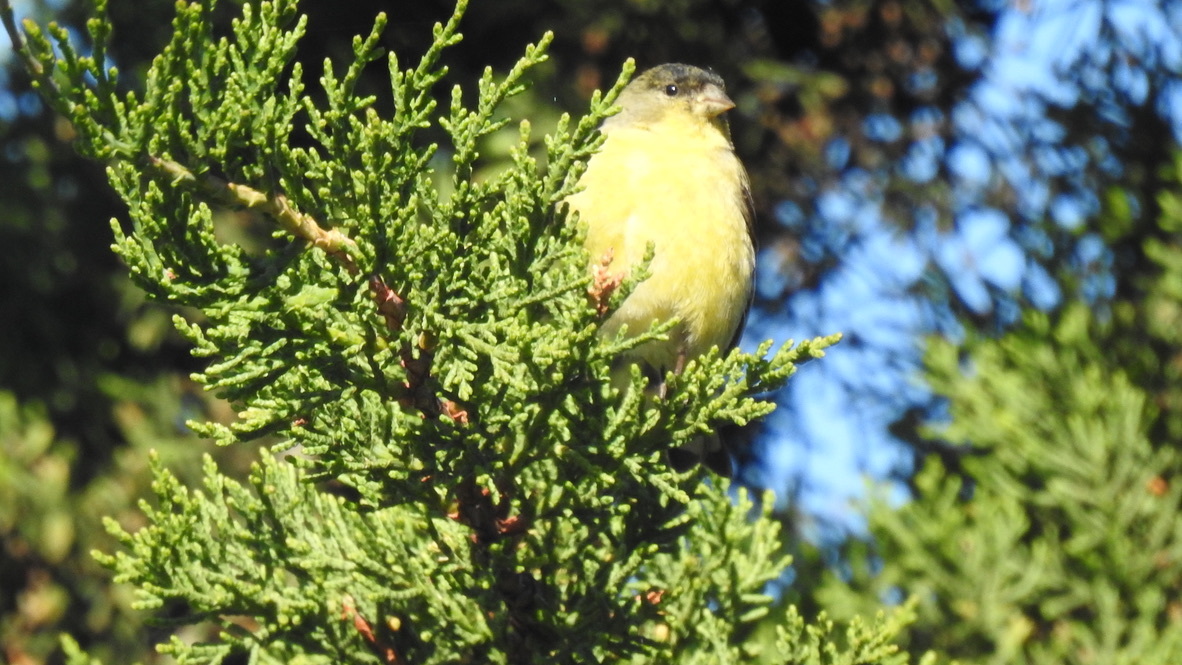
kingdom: Animalia
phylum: Chordata
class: Aves
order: Passeriformes
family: Fringillidae
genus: Spinus
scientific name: Spinus psaltria
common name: Lesser goldfinch
